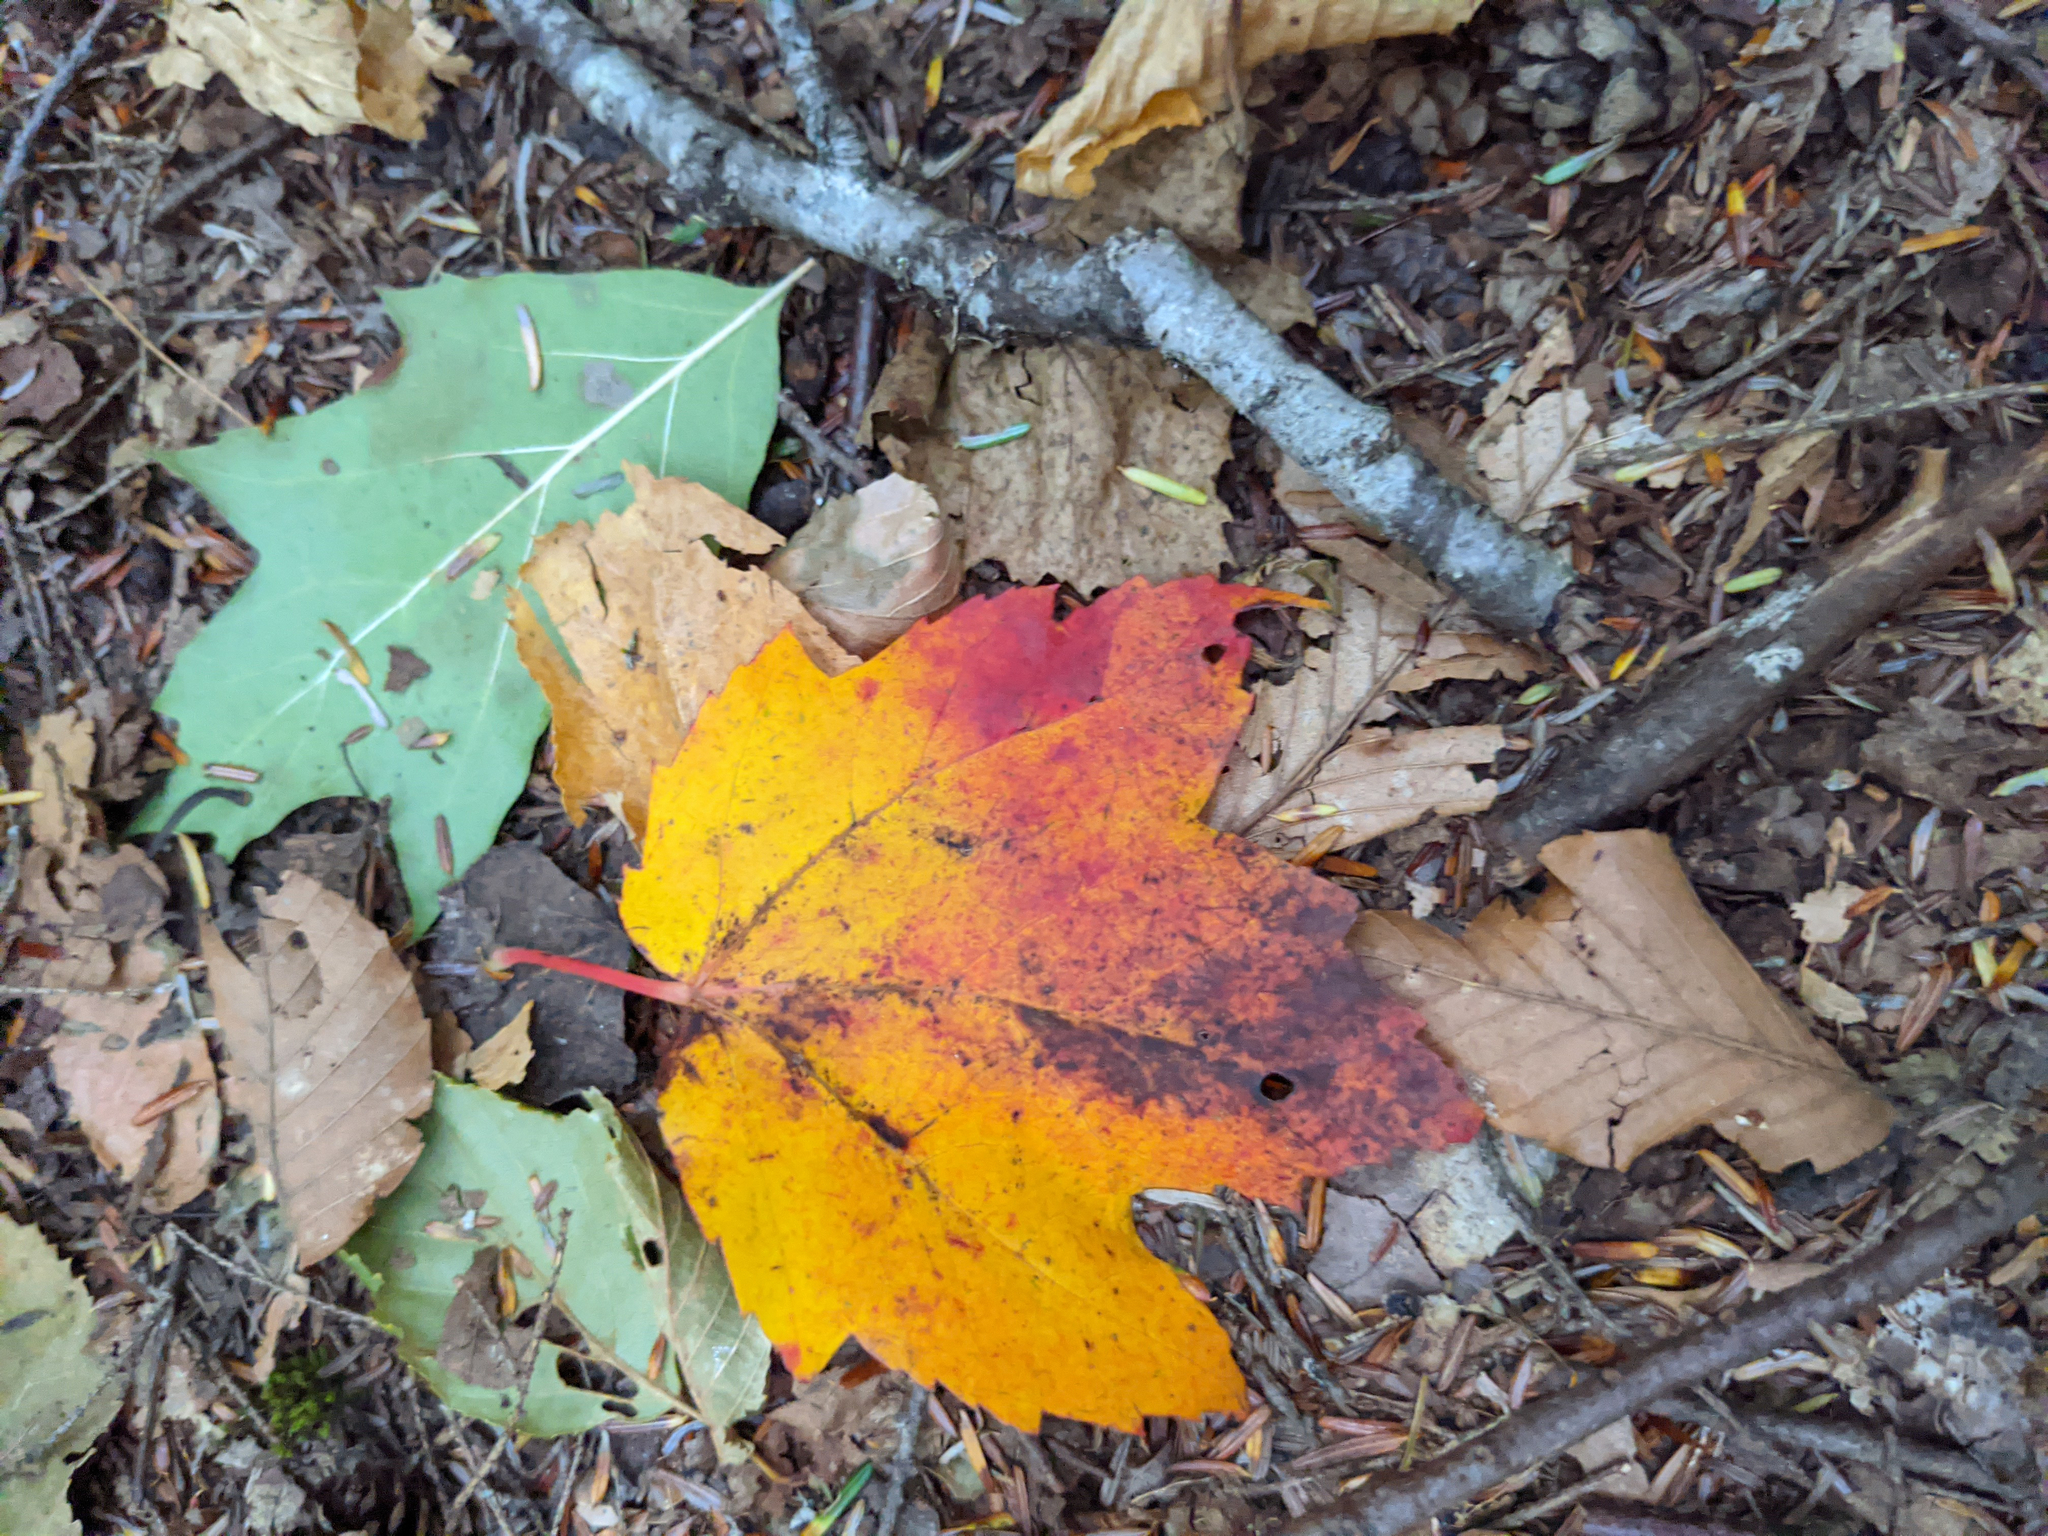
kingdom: Plantae
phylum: Tracheophyta
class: Magnoliopsida
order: Sapindales
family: Sapindaceae
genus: Acer
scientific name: Acer rubrum
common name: Red maple
